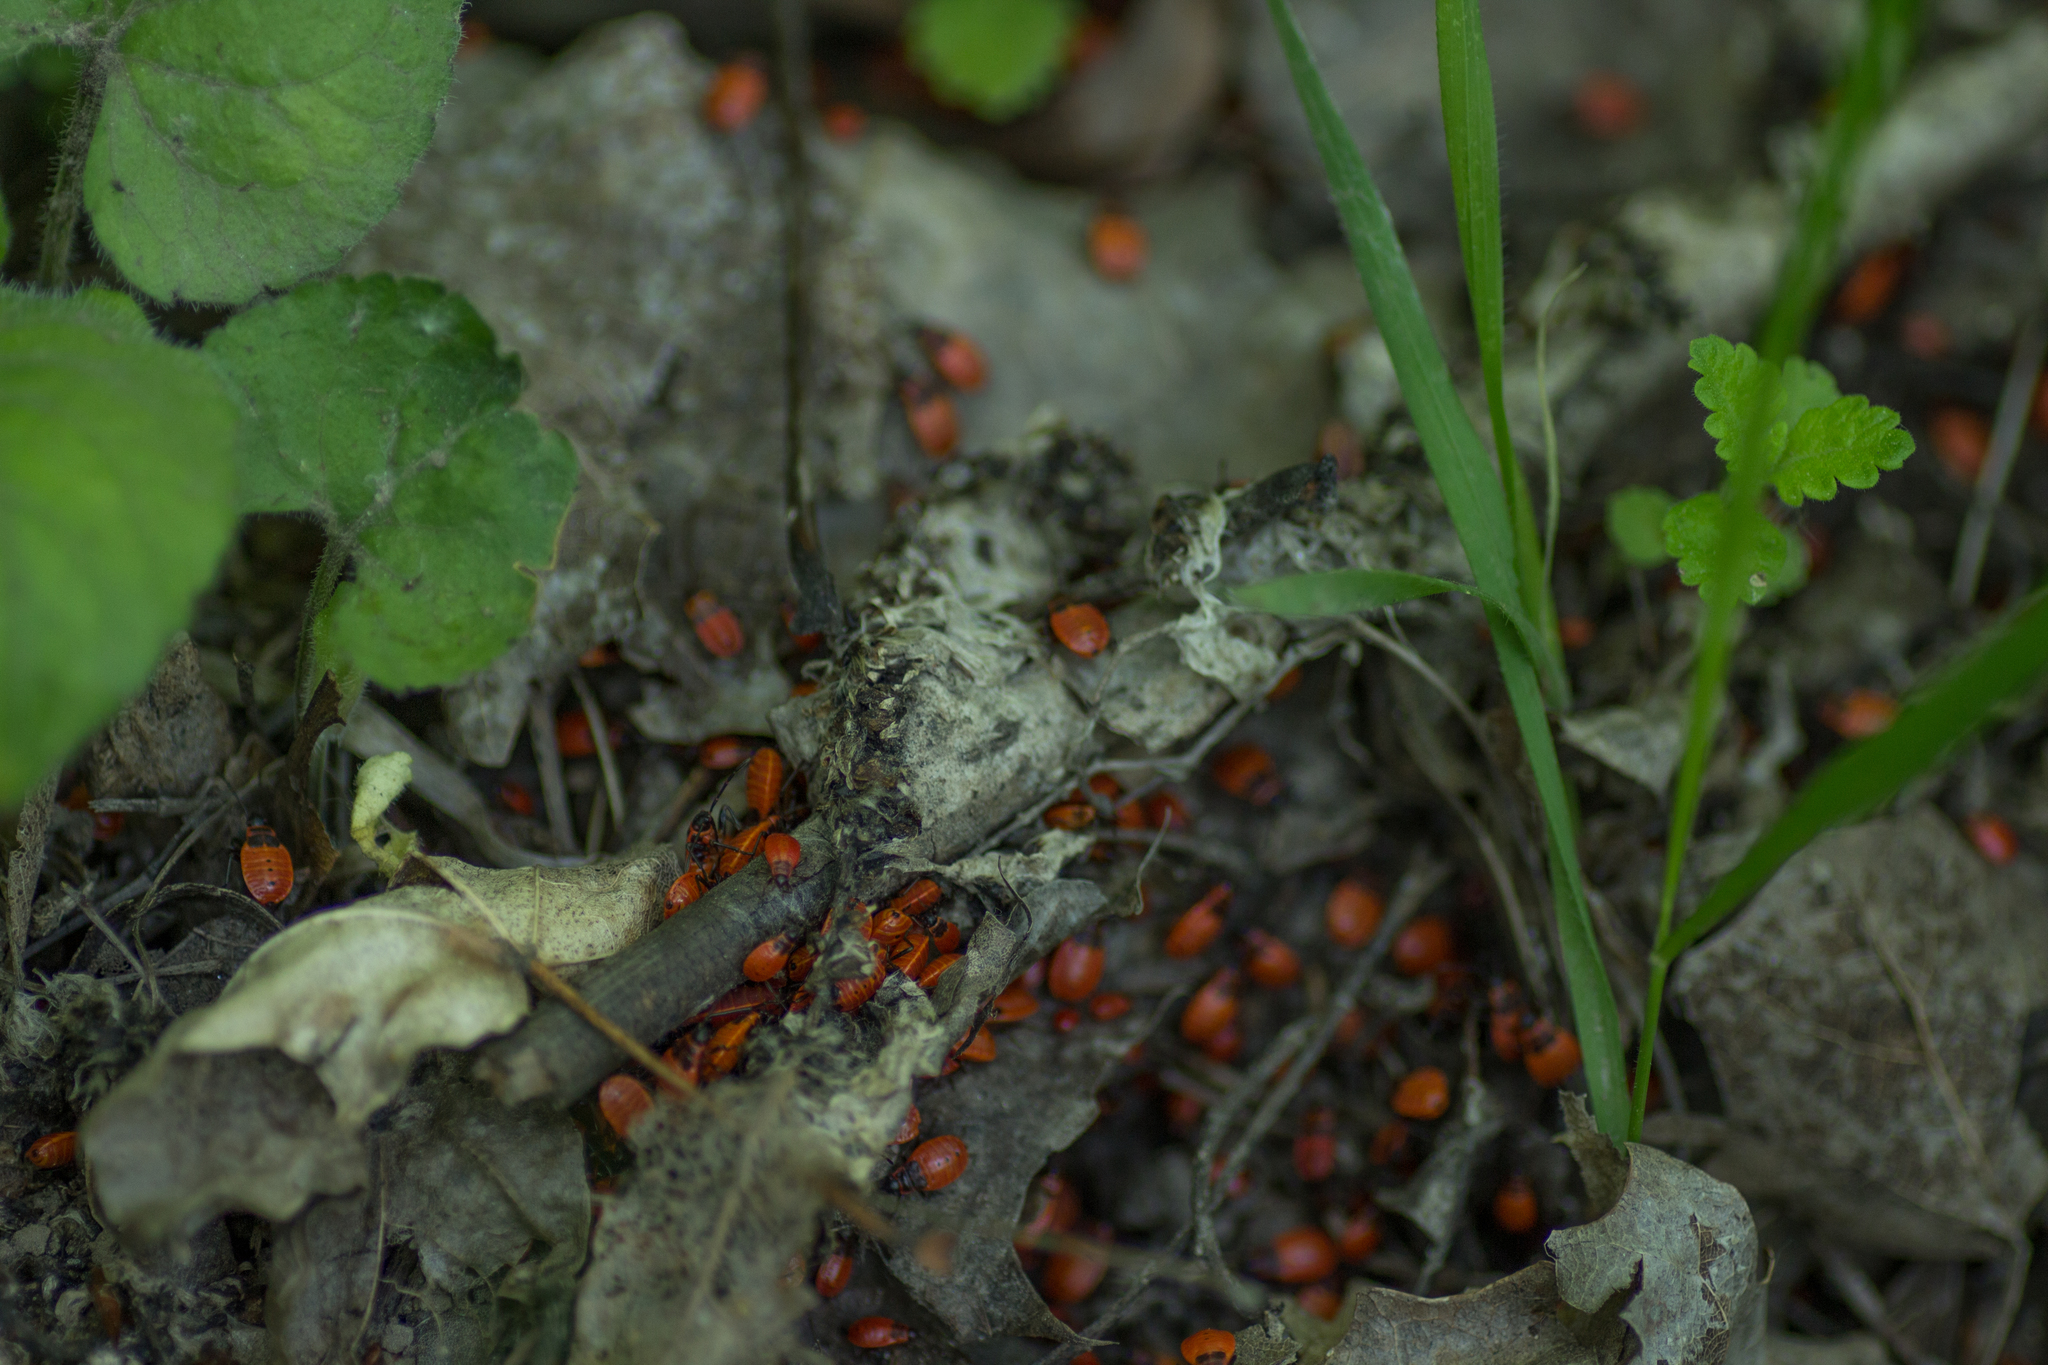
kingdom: Animalia
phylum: Arthropoda
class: Insecta
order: Hemiptera
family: Pyrrhocoridae
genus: Pyrrhocoris
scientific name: Pyrrhocoris apterus
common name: Firebug
